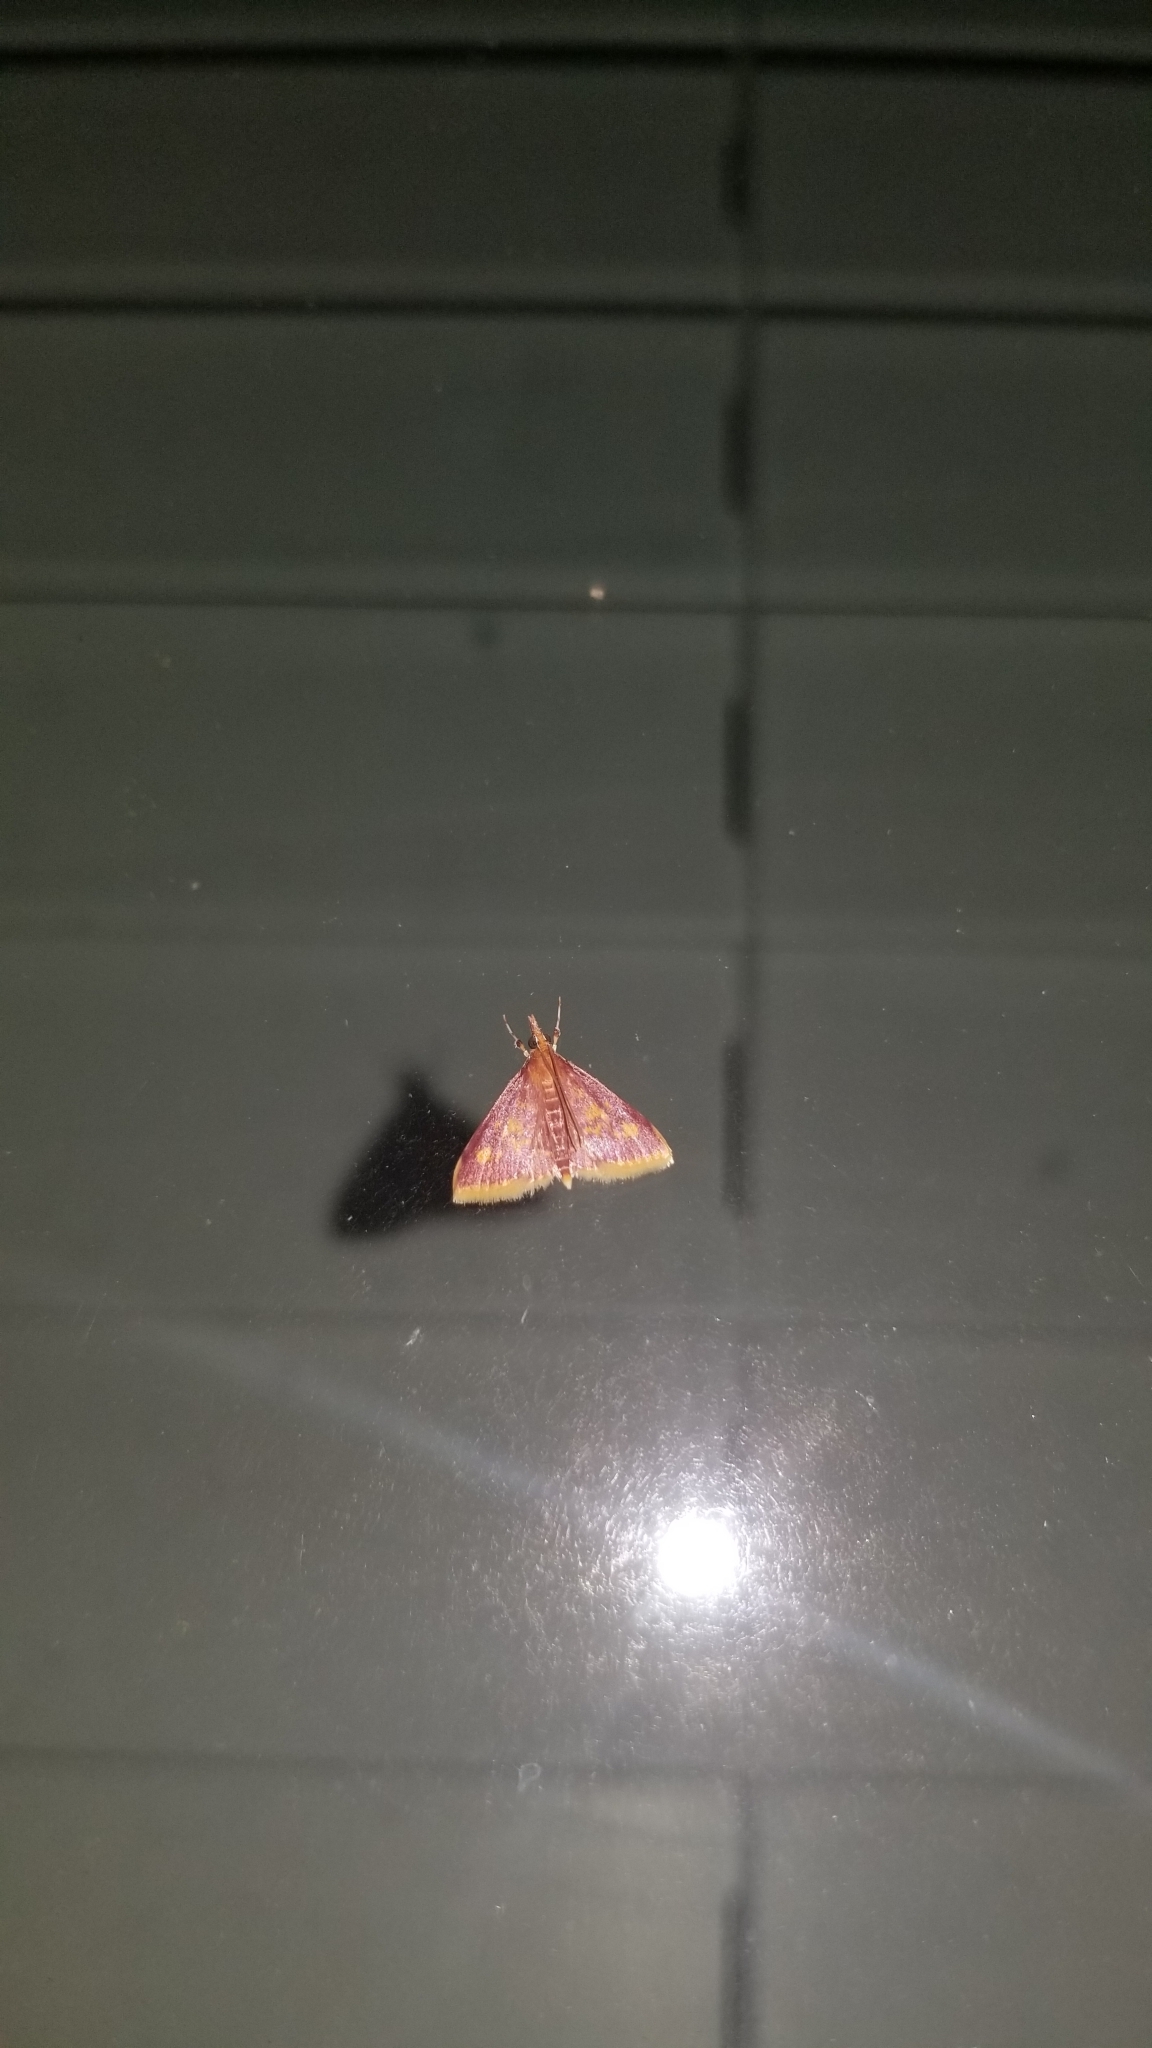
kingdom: Animalia
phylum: Arthropoda
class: Insecta
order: Lepidoptera
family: Crambidae
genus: Pyrausta
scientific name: Pyrausta acrionalis
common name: Mint-loving pyrausta moth
